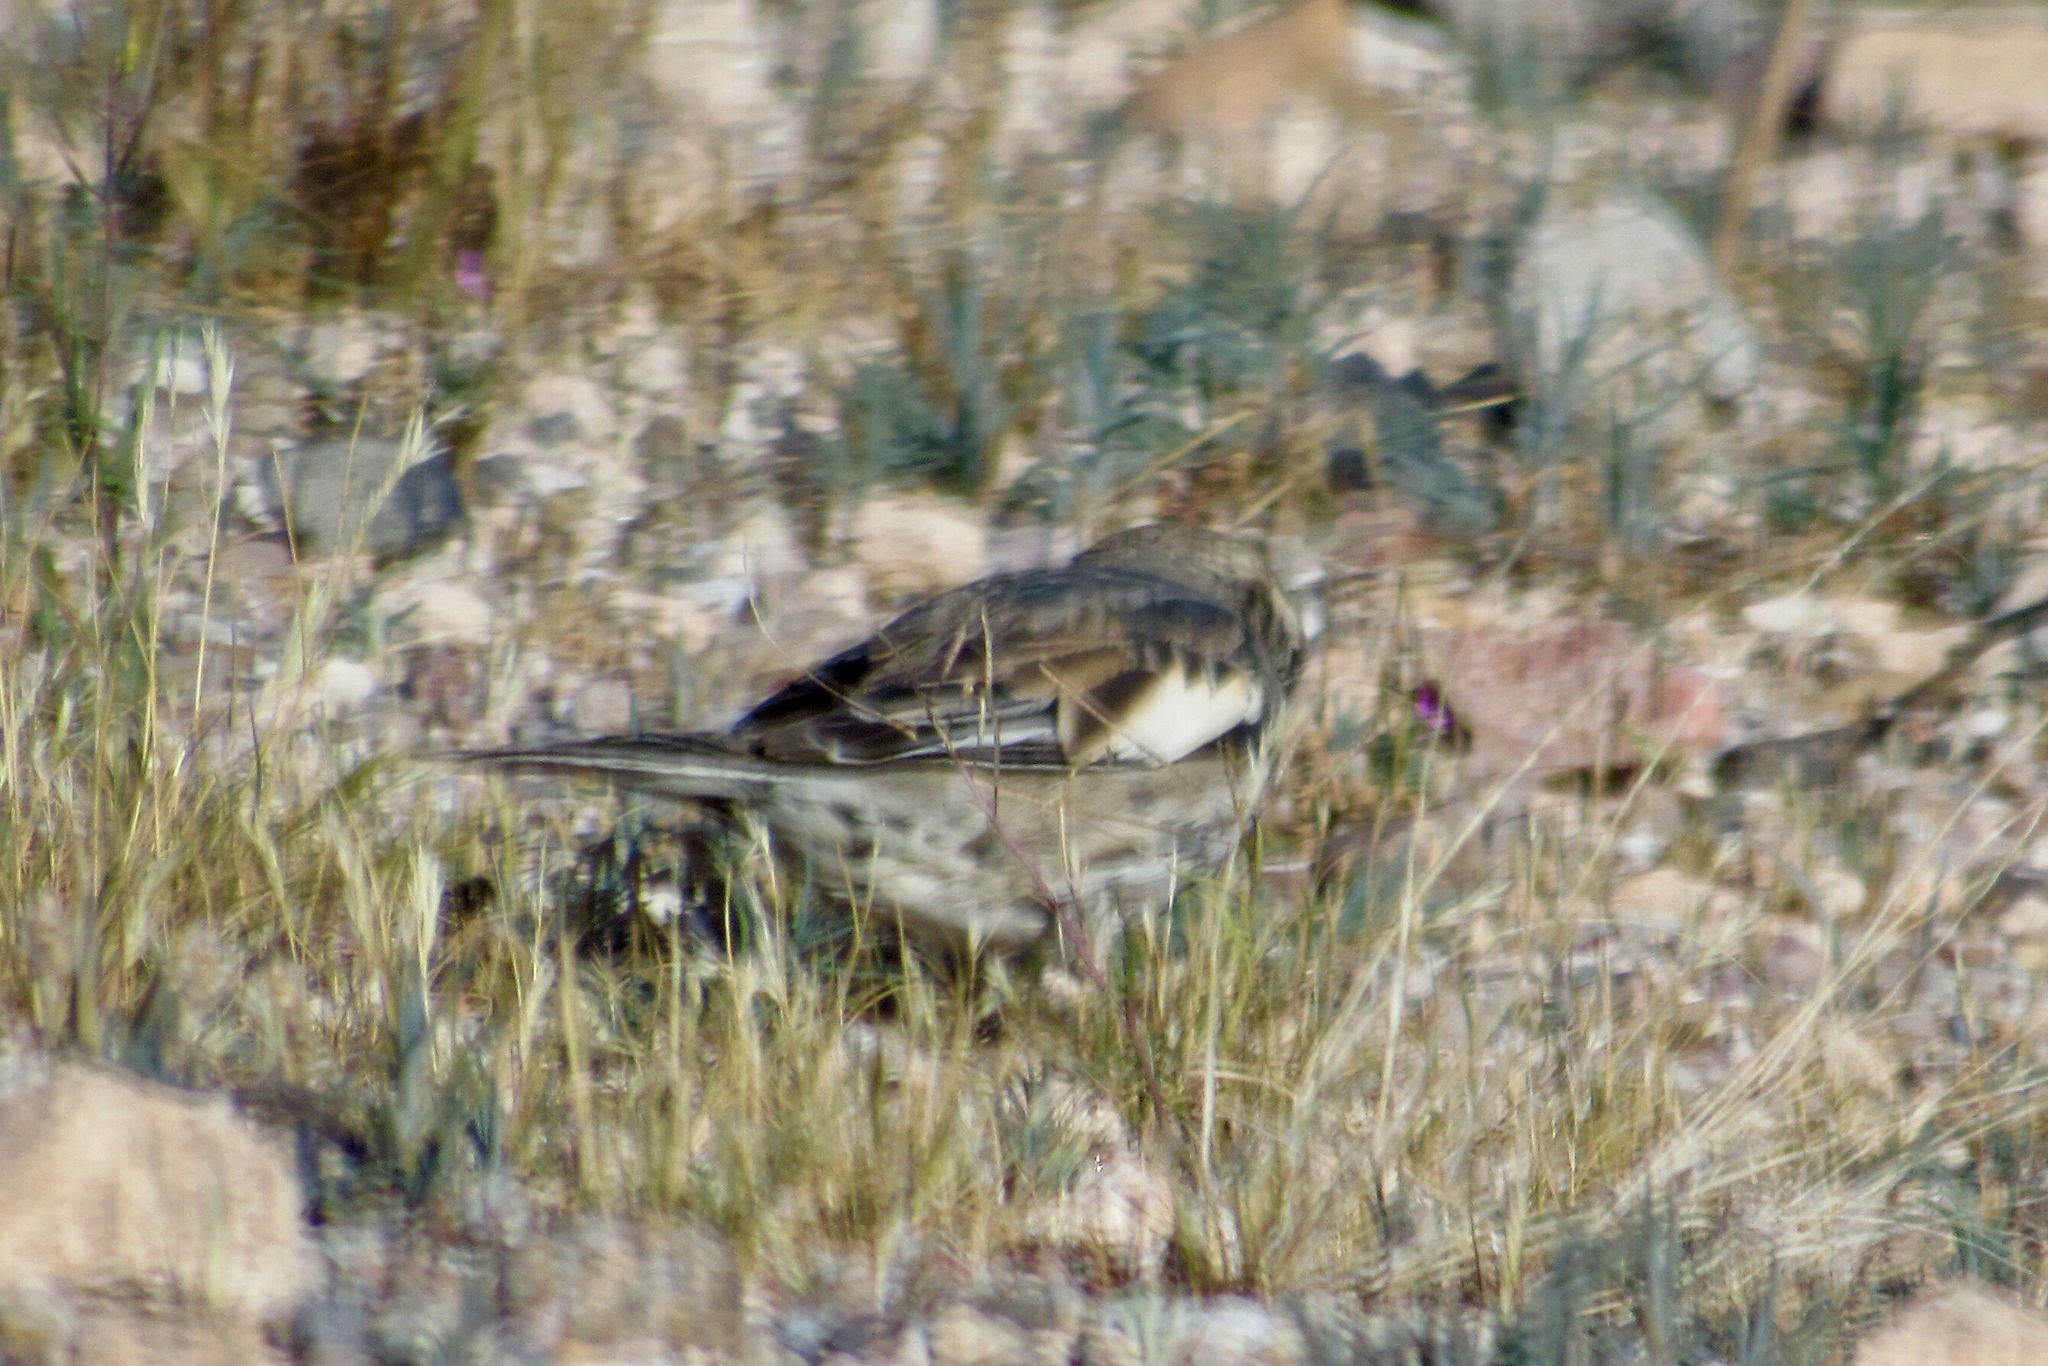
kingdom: Animalia
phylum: Chordata
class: Aves
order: Passeriformes
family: Passerellidae
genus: Calamospiza
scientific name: Calamospiza melanocorys
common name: Lark bunting
